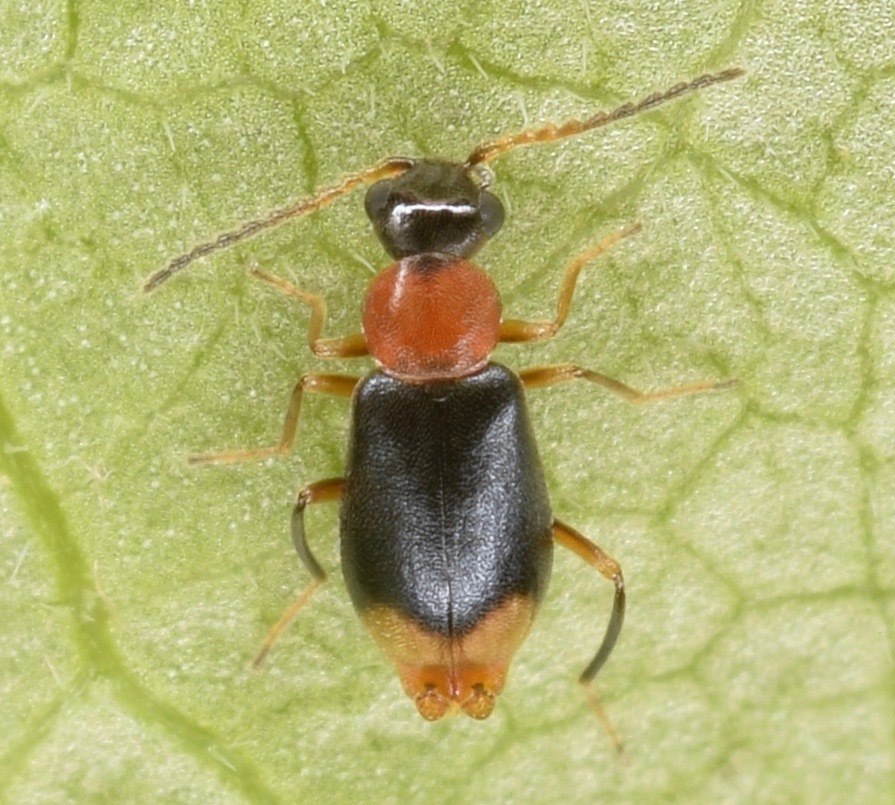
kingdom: Animalia
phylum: Arthropoda
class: Insecta
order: Coleoptera
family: Melyridae
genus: Hypebaeus
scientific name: Hypebaeus bicolor
